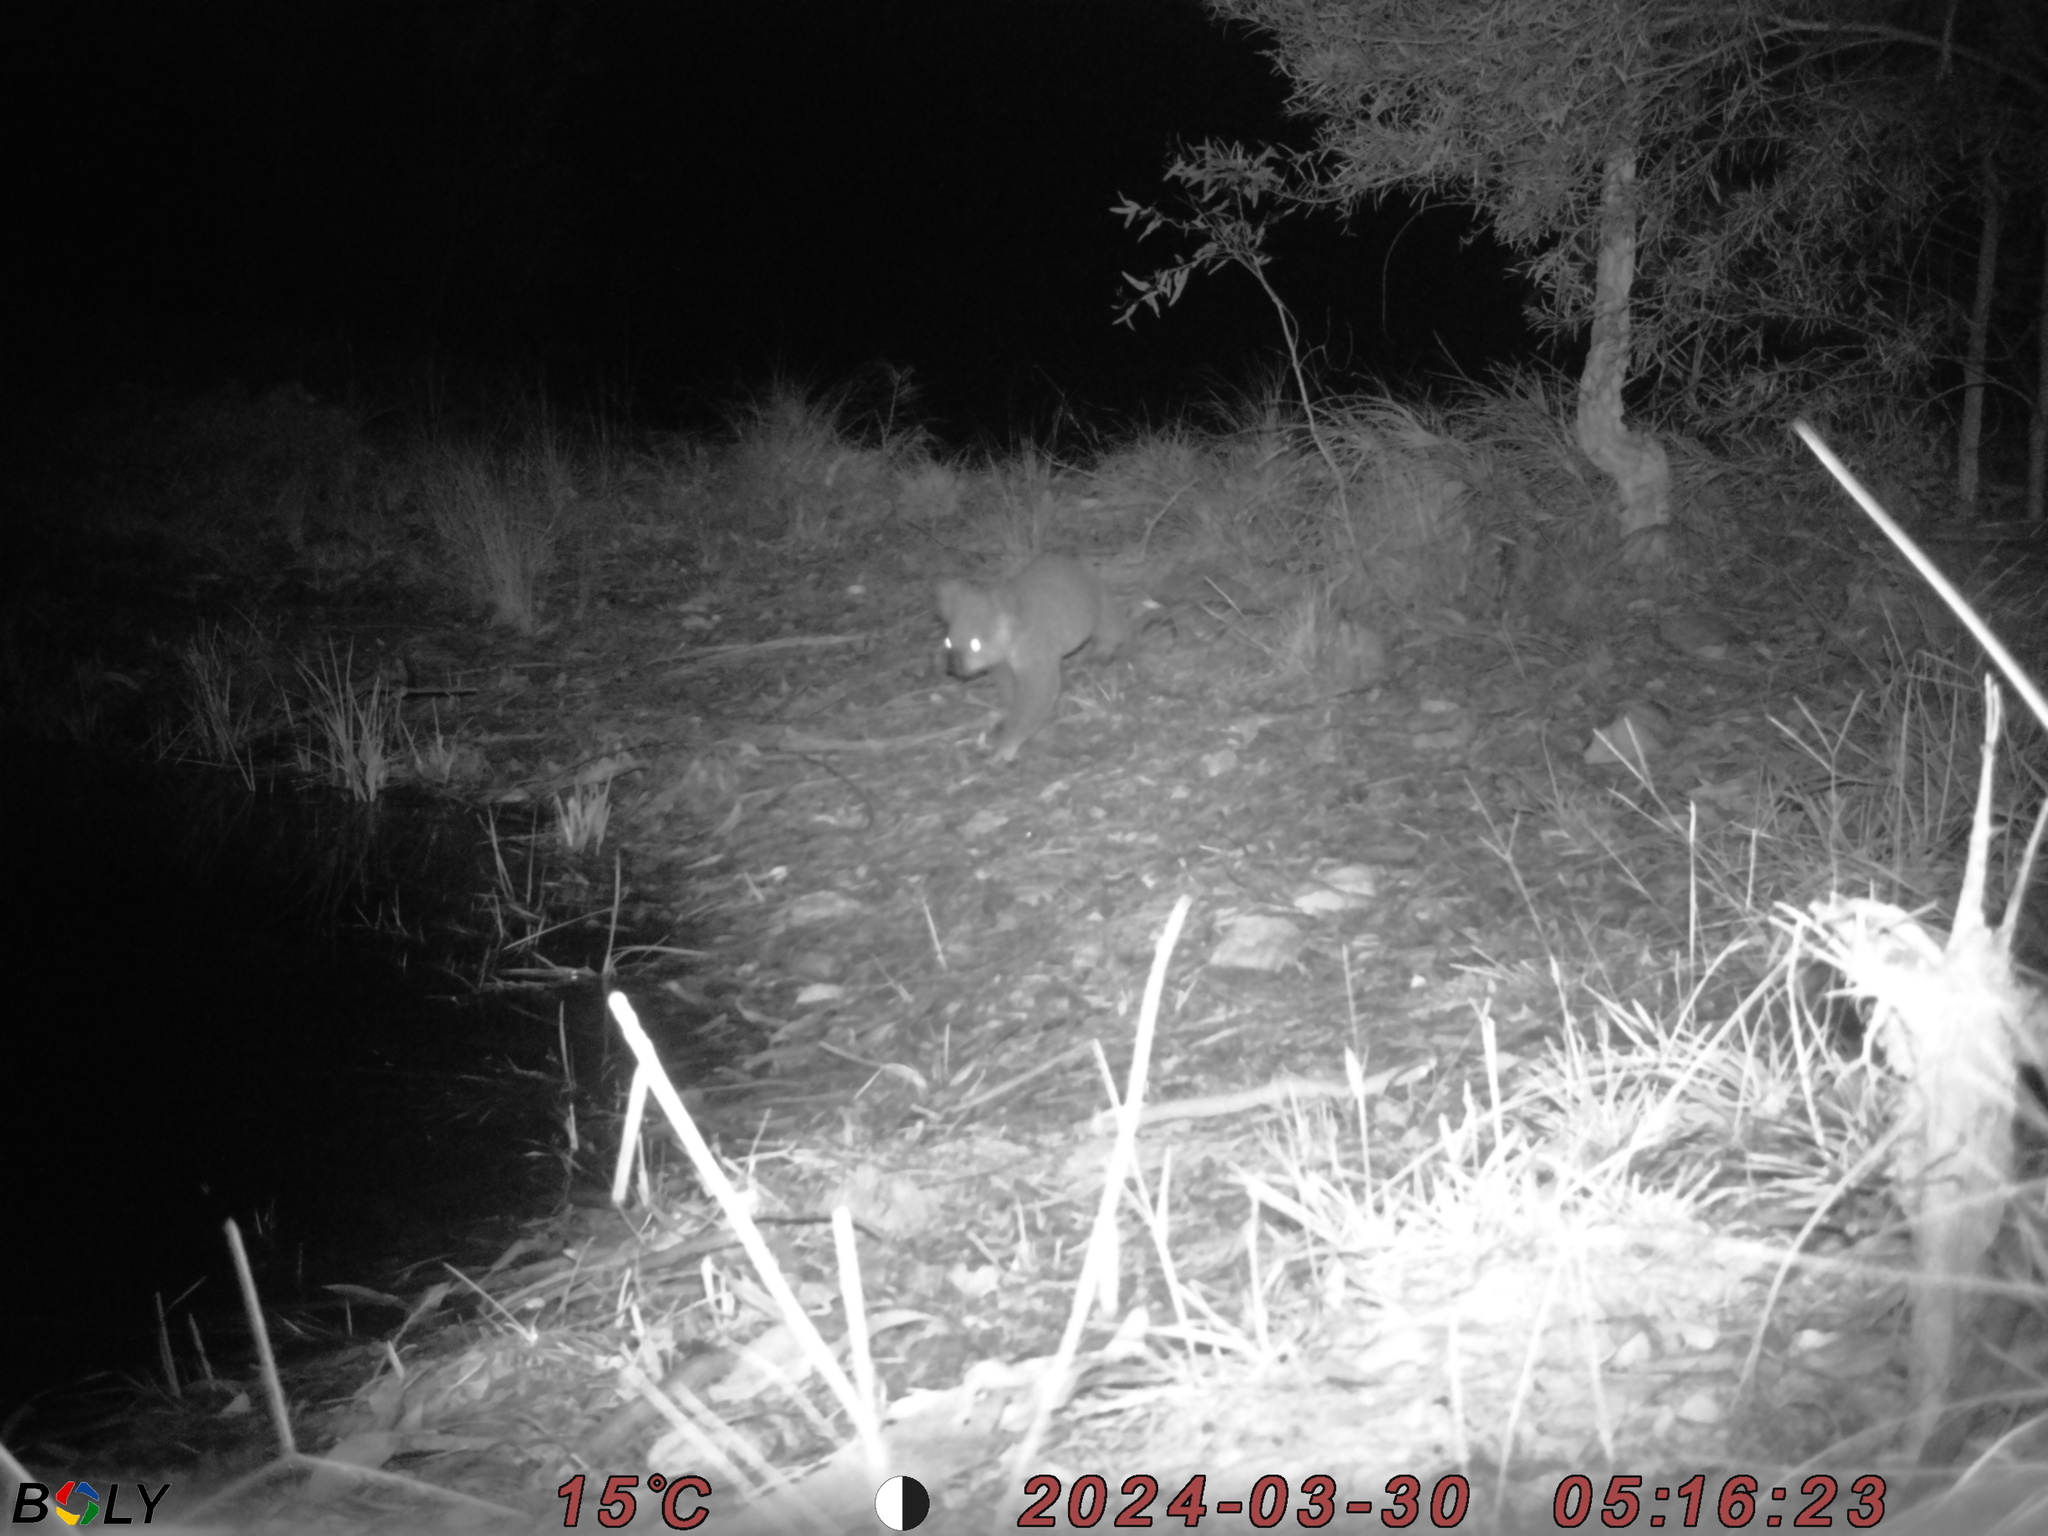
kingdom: Animalia
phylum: Chordata
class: Mammalia
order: Diprotodontia
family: Phascolarctidae
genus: Phascolarctos
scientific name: Phascolarctos cinereus
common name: Koala
